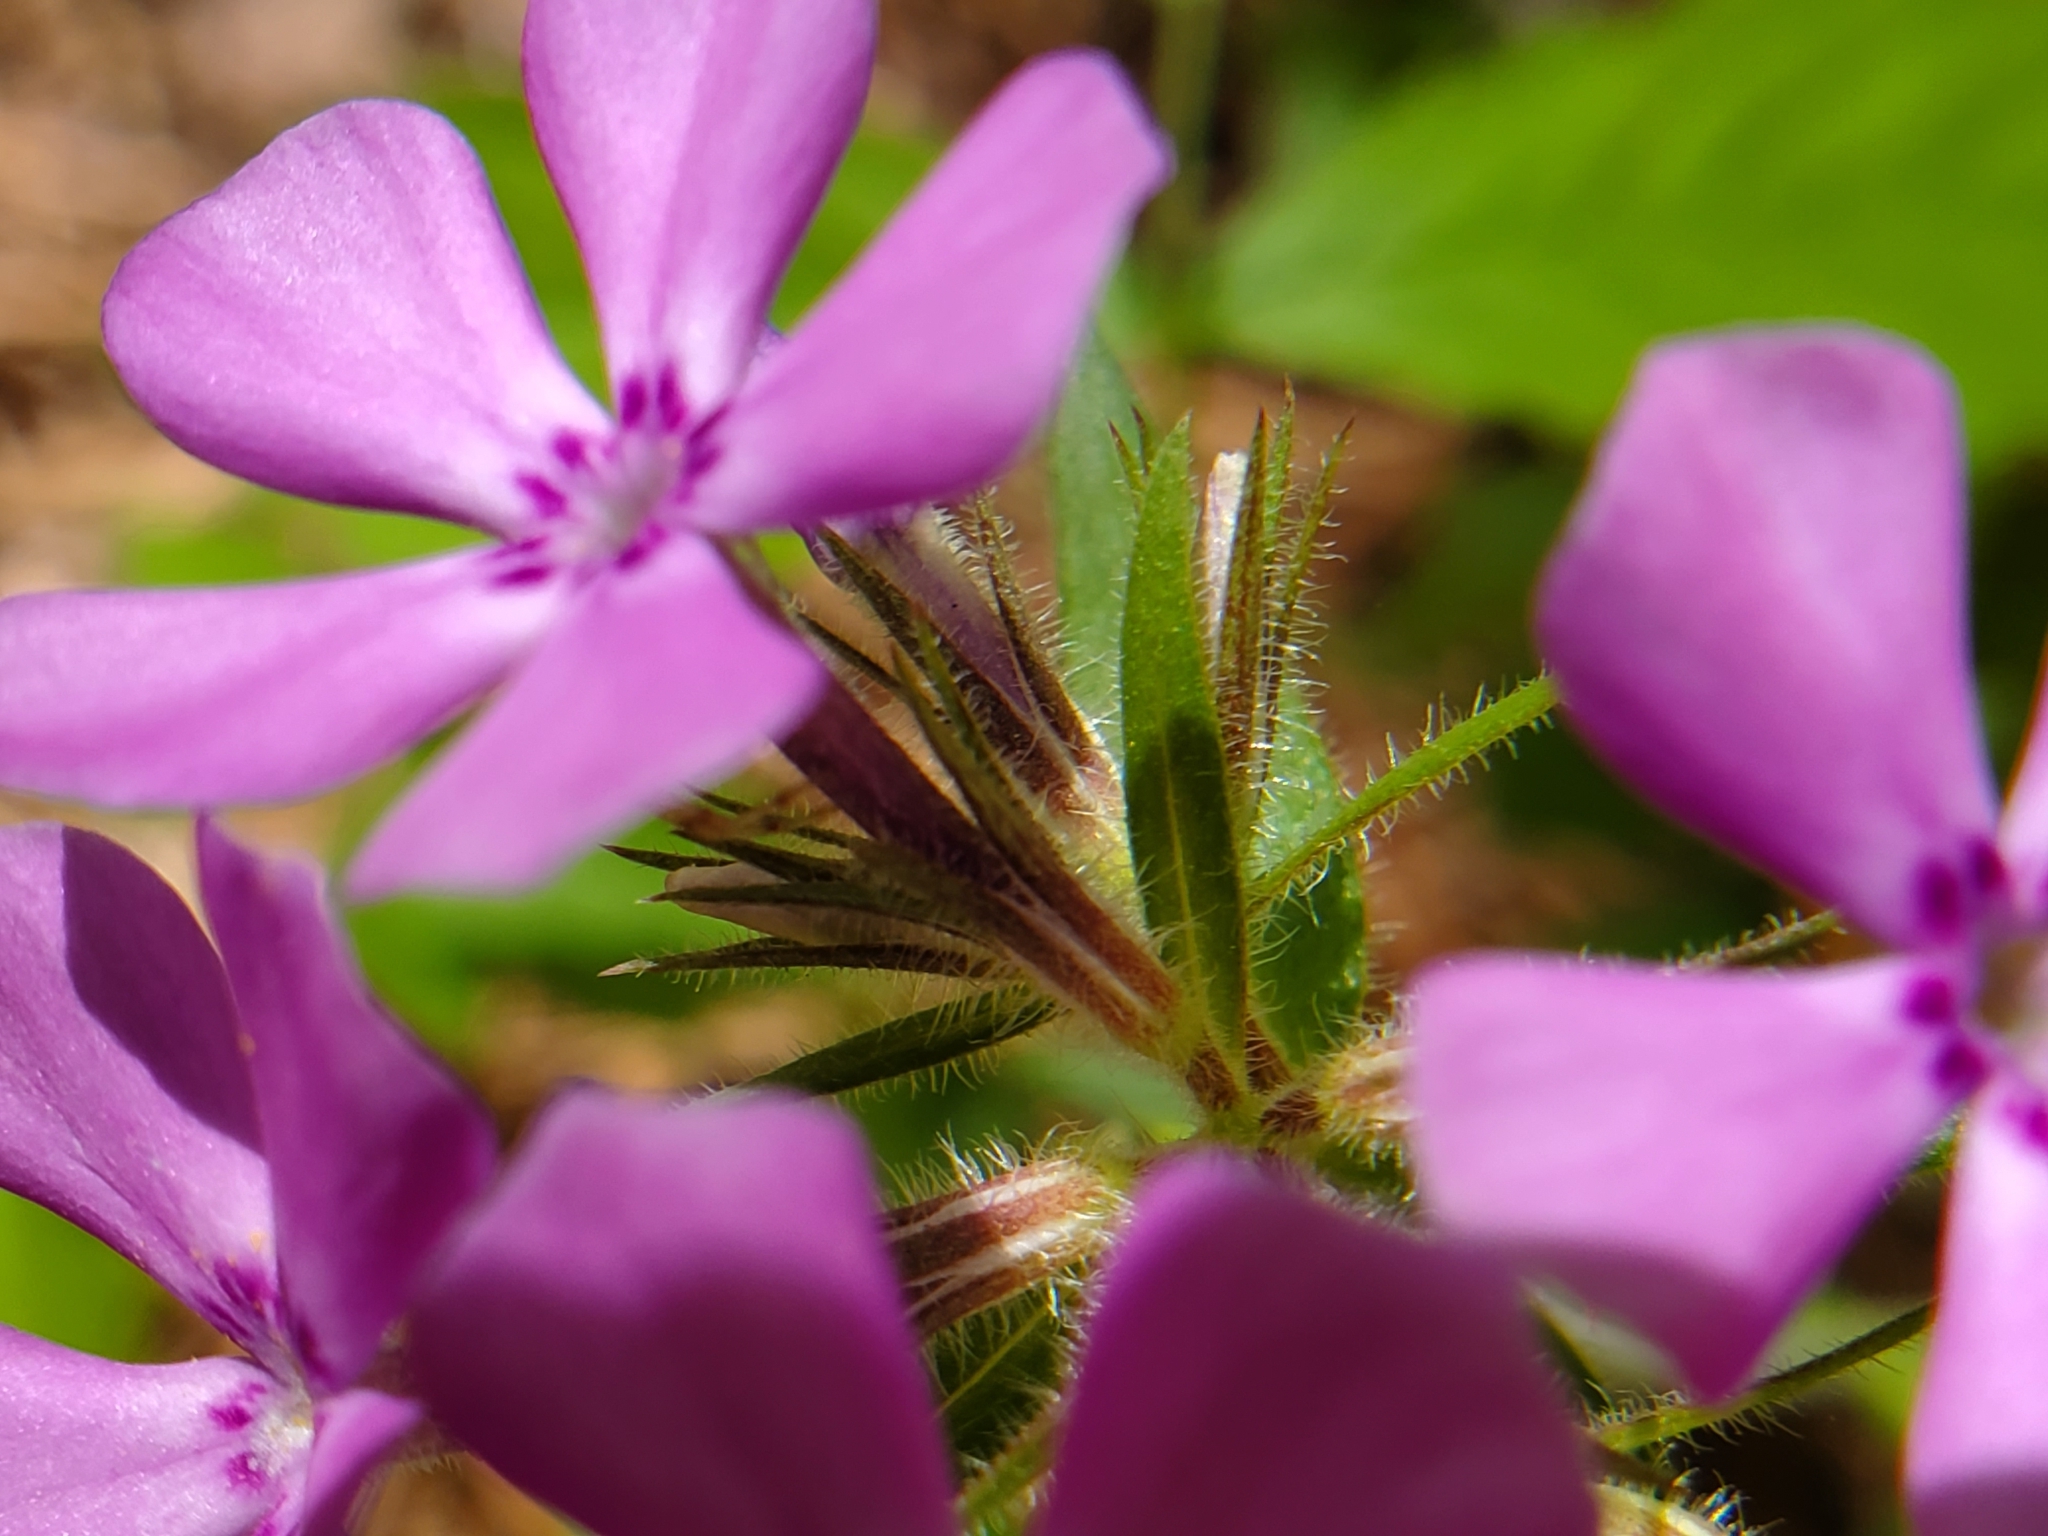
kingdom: Plantae
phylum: Tracheophyta
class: Magnoliopsida
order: Ericales
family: Polemoniaceae
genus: Phlox
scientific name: Phlox pilosa
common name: Prairie phlox
